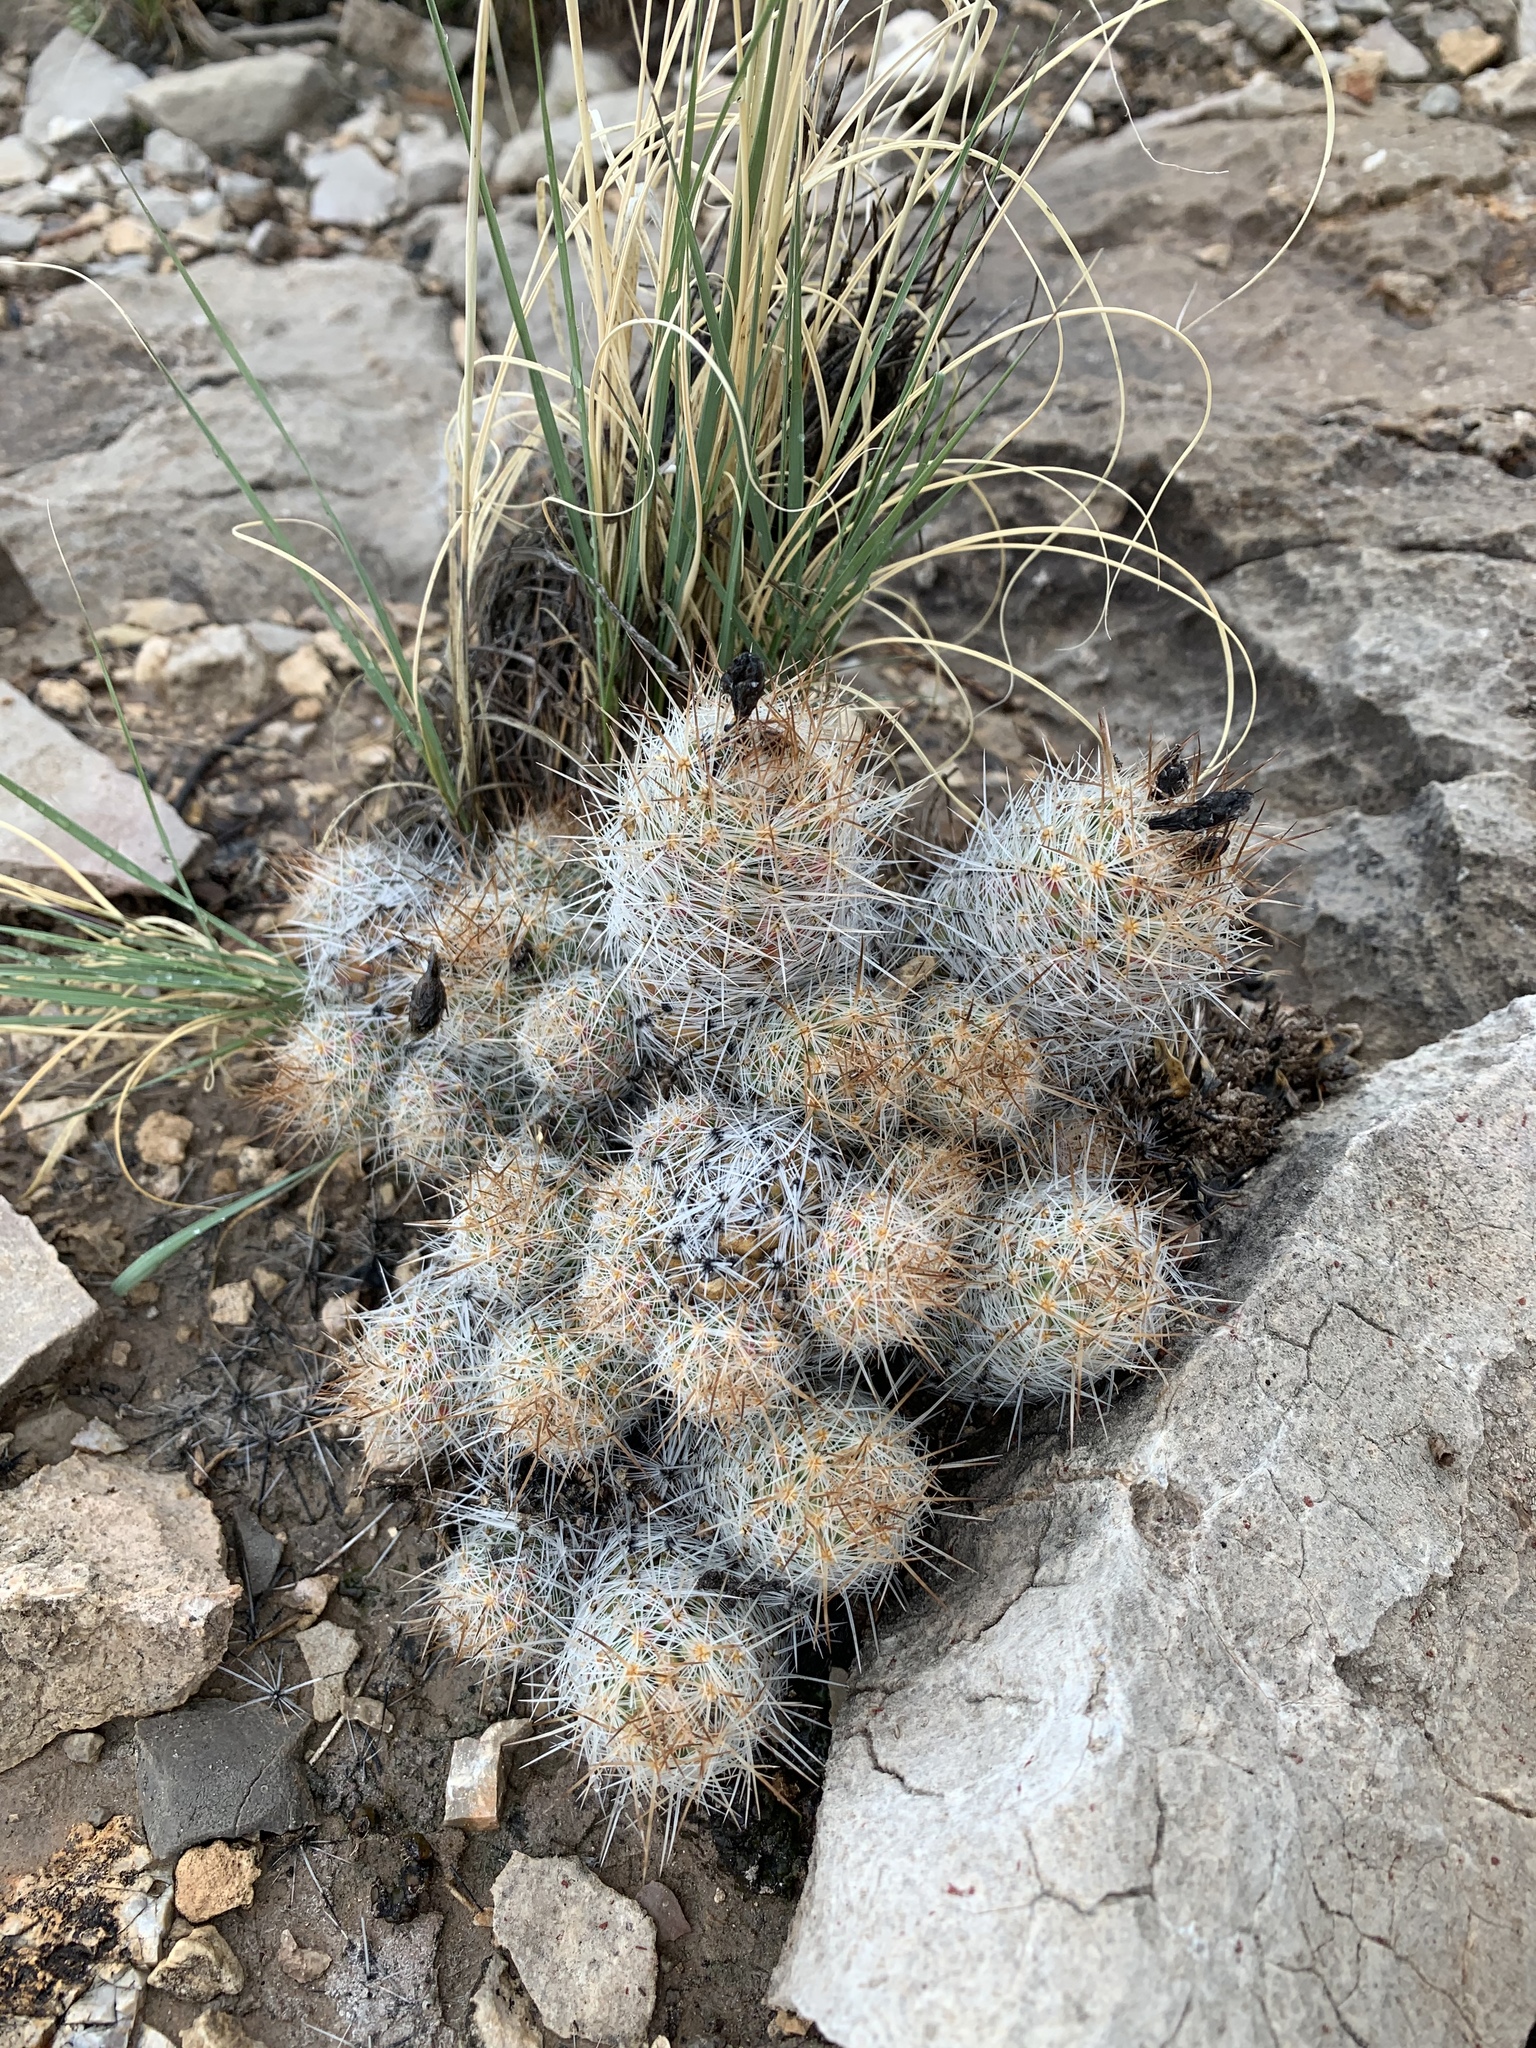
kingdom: Plantae
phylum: Tracheophyta
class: Magnoliopsida
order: Caryophyllales
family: Cactaceae
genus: Pelecyphora
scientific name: Pelecyphora tuberculosa
